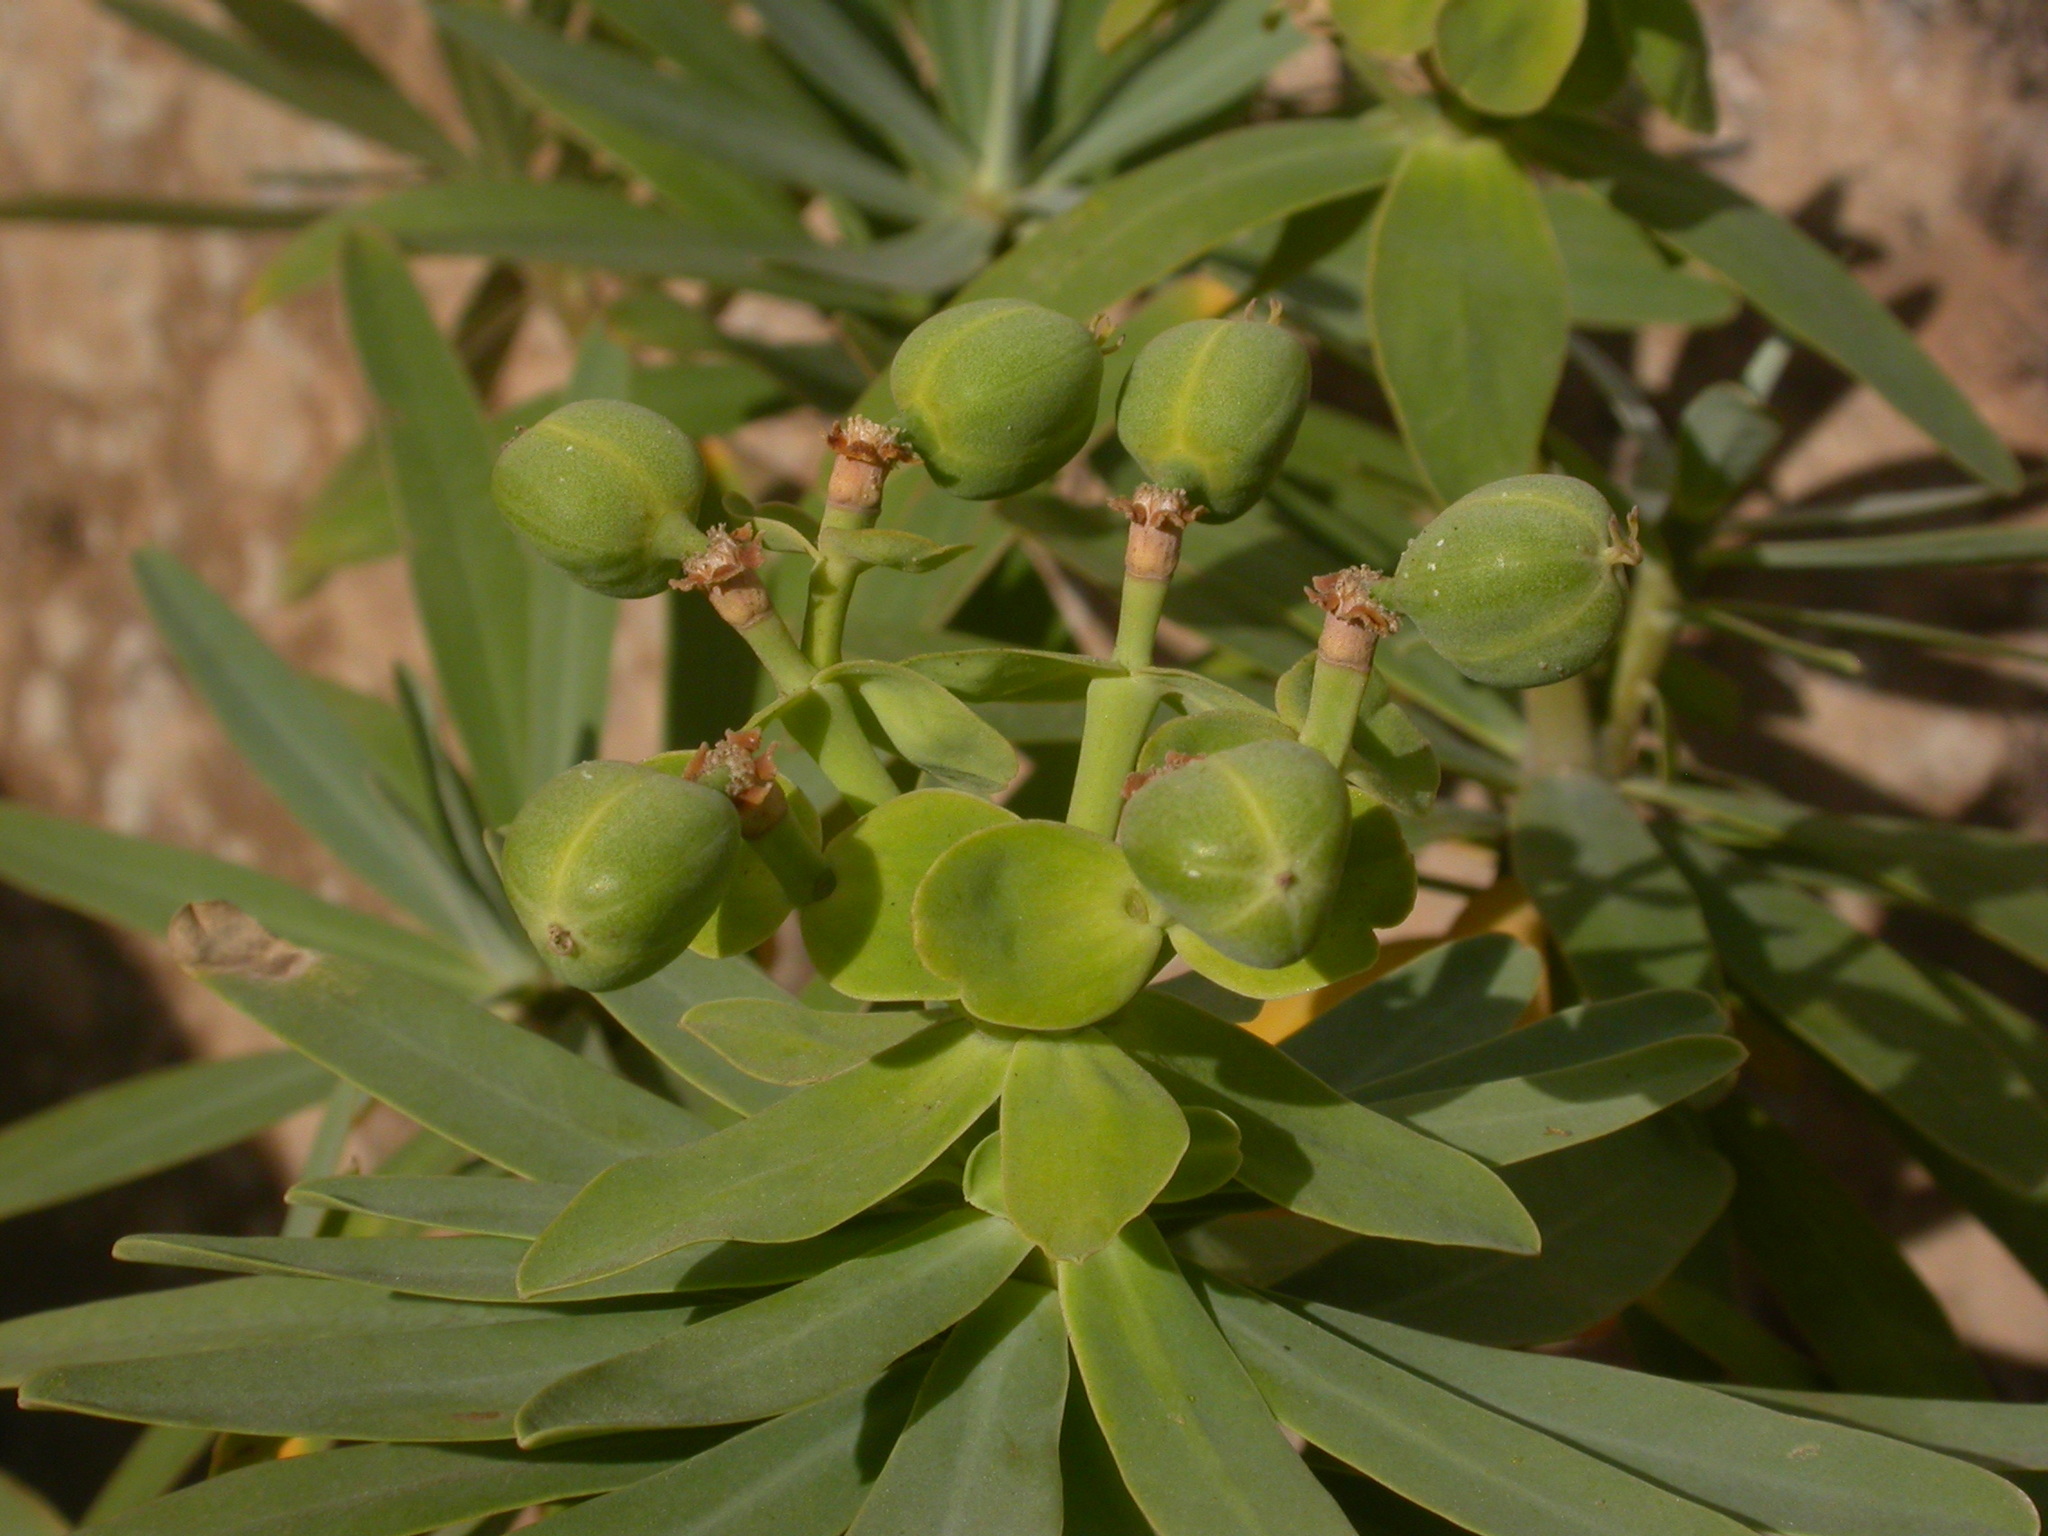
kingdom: Plantae
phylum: Tracheophyta
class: Magnoliopsida
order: Malpighiales
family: Euphorbiaceae
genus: Euphorbia
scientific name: Euphorbia tuckeyana
